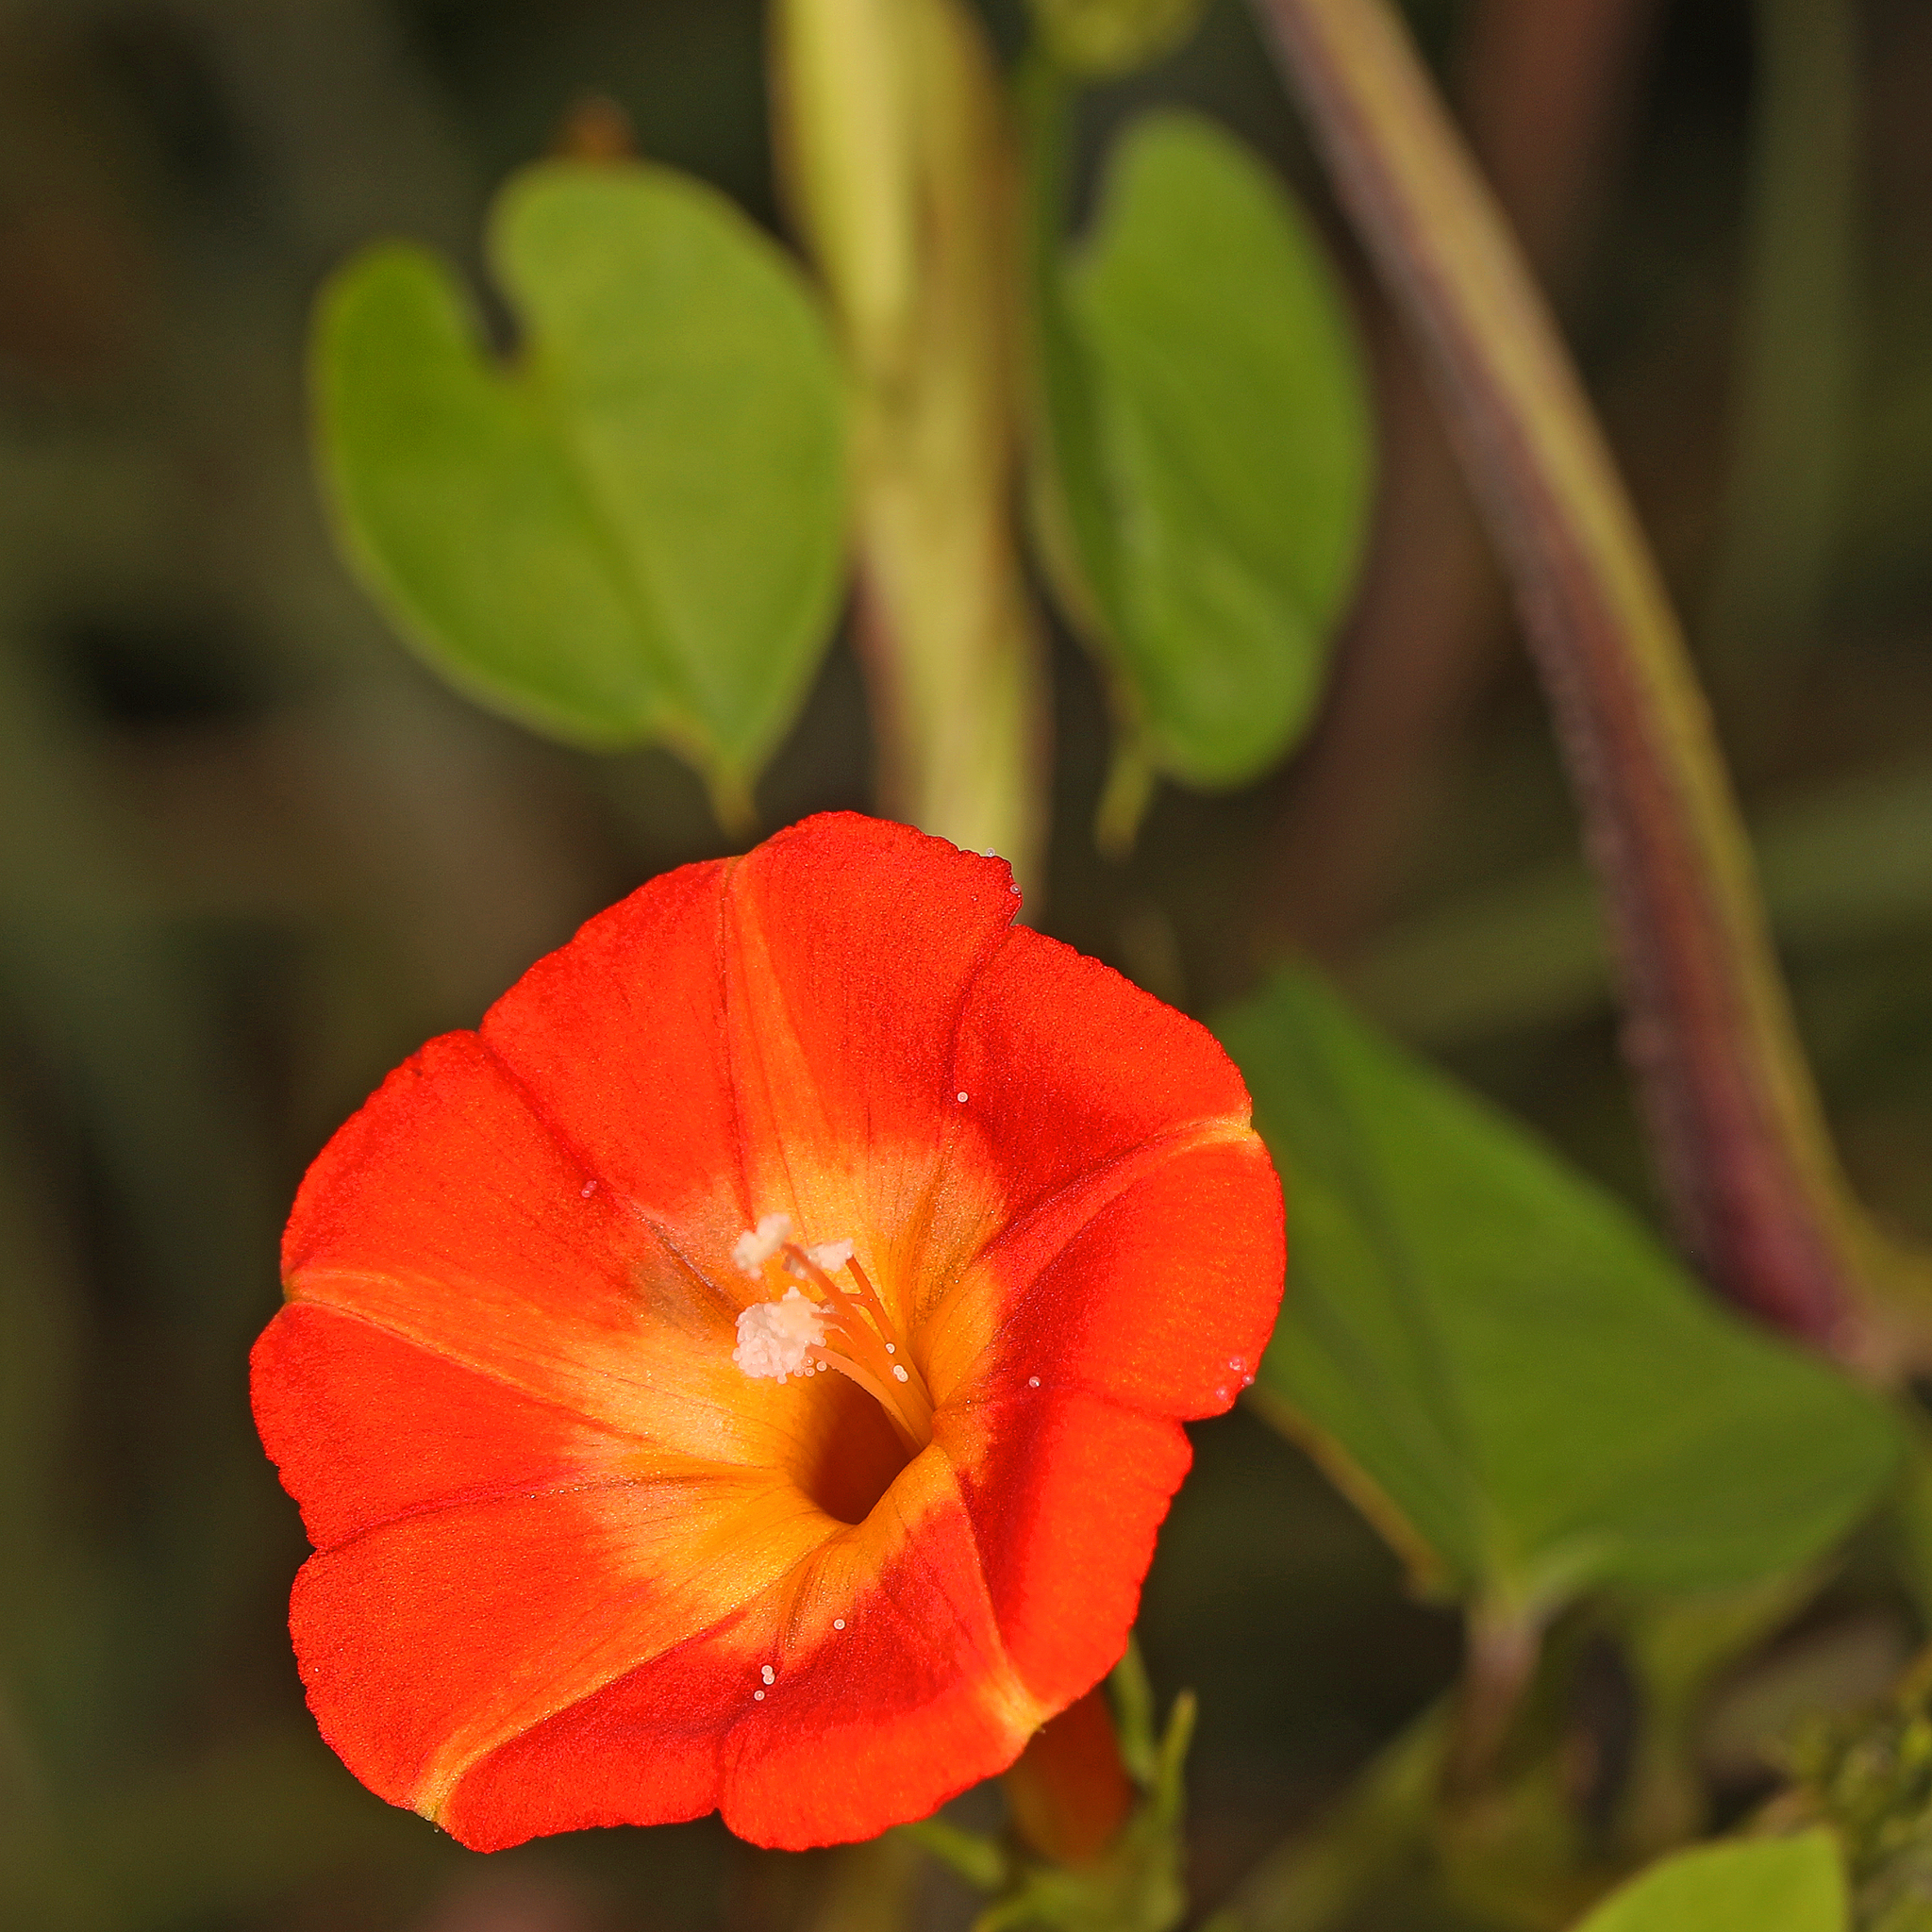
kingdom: Plantae
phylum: Tracheophyta
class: Magnoliopsida
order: Solanales
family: Convolvulaceae
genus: Ipomoea
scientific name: Ipomoea coccinea
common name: Red morning-glory
